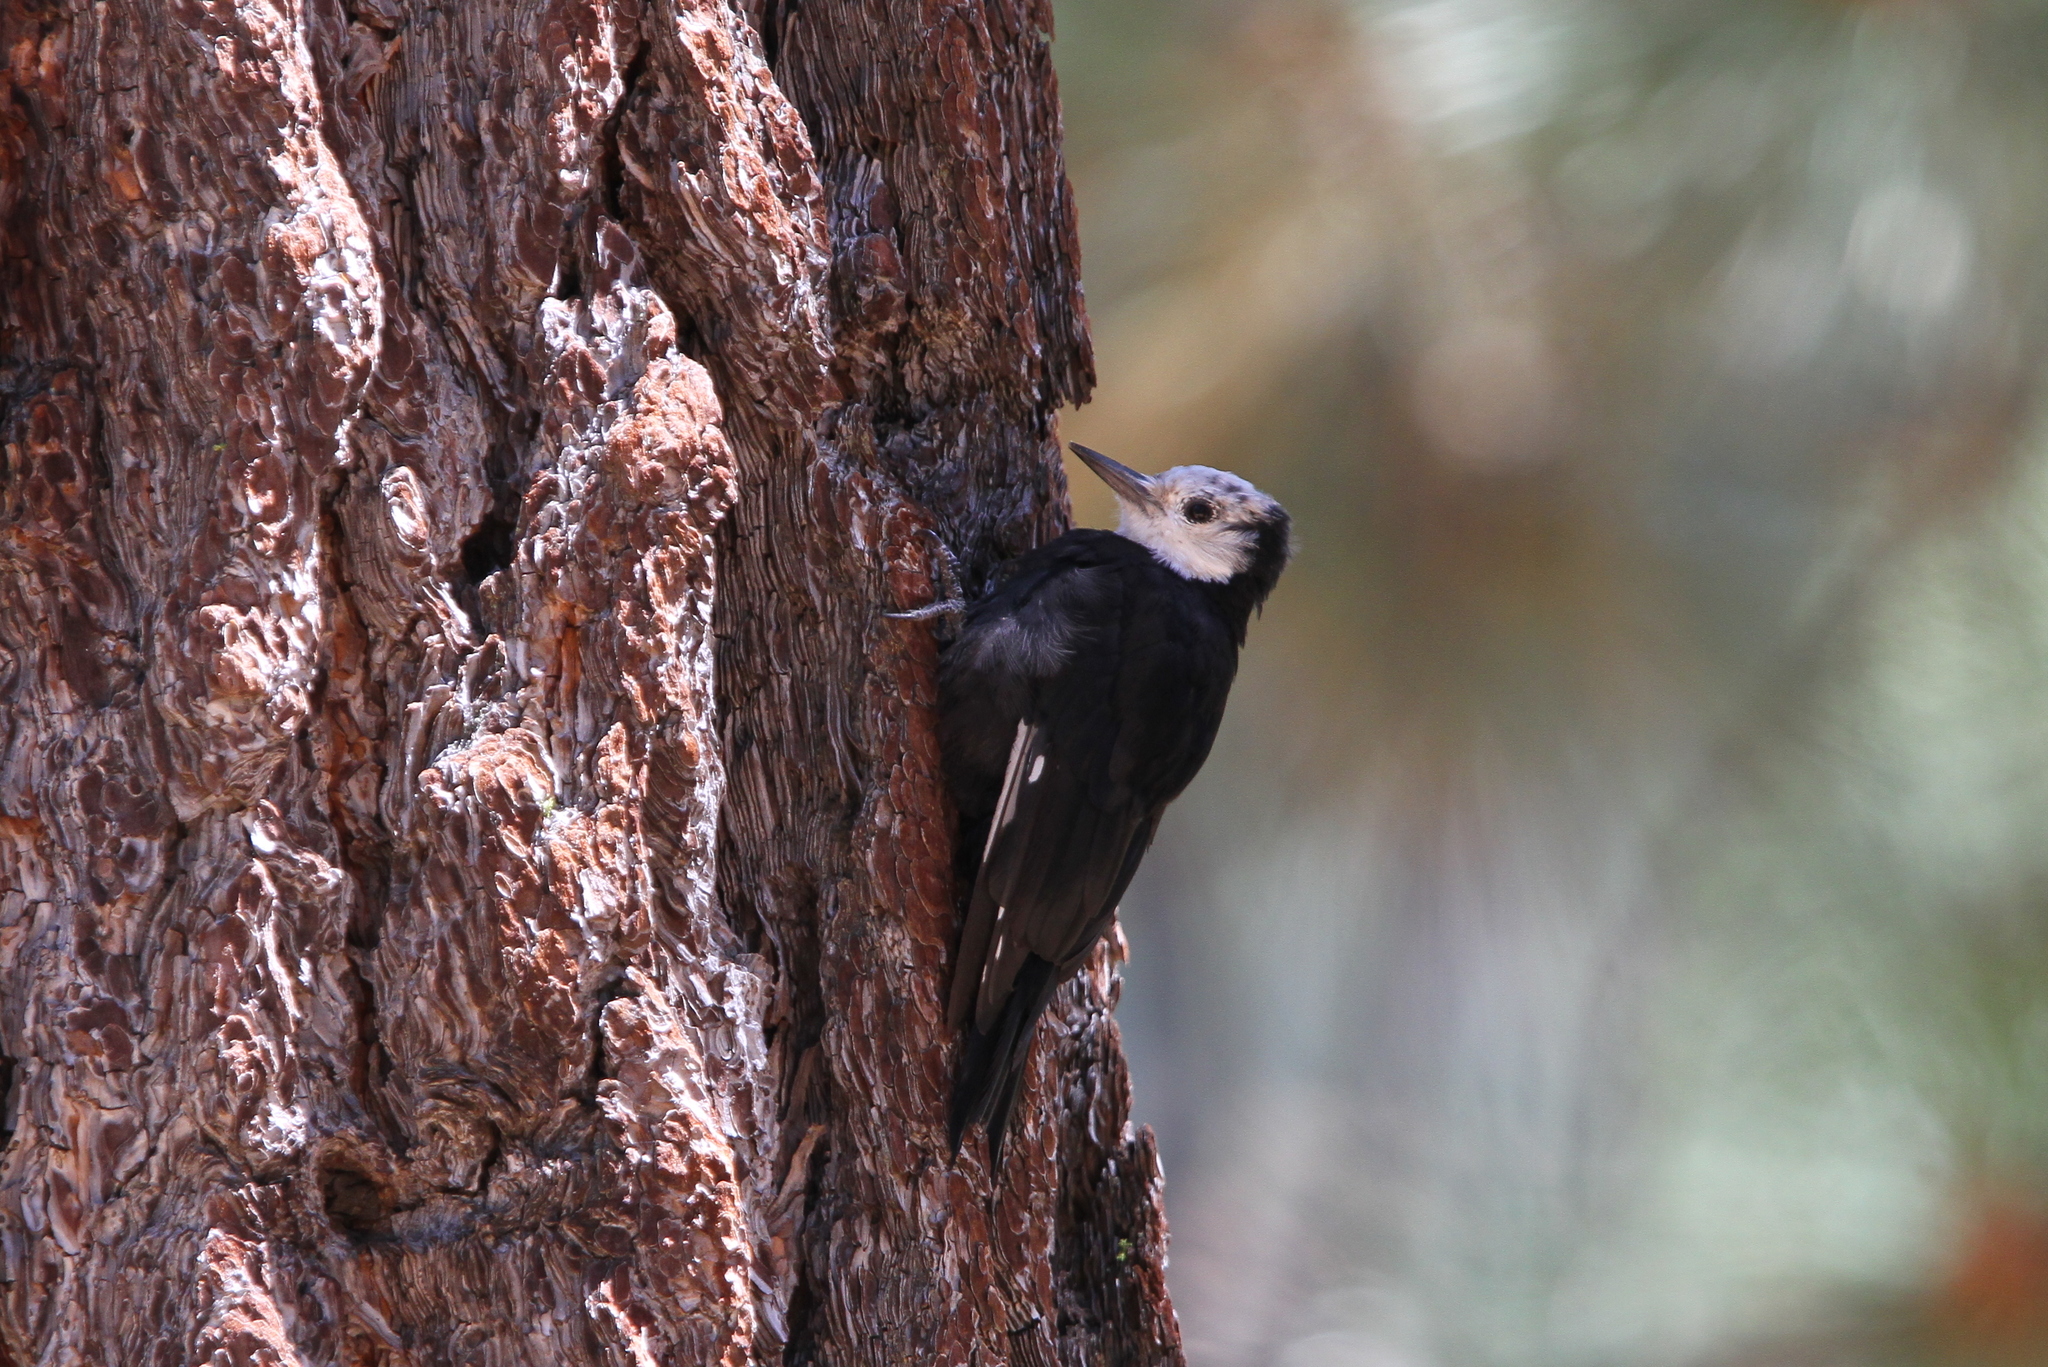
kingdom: Animalia
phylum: Chordata
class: Aves
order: Piciformes
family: Picidae
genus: Leuconotopicus
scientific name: Leuconotopicus albolarvatus
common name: White-headed woodpecker
